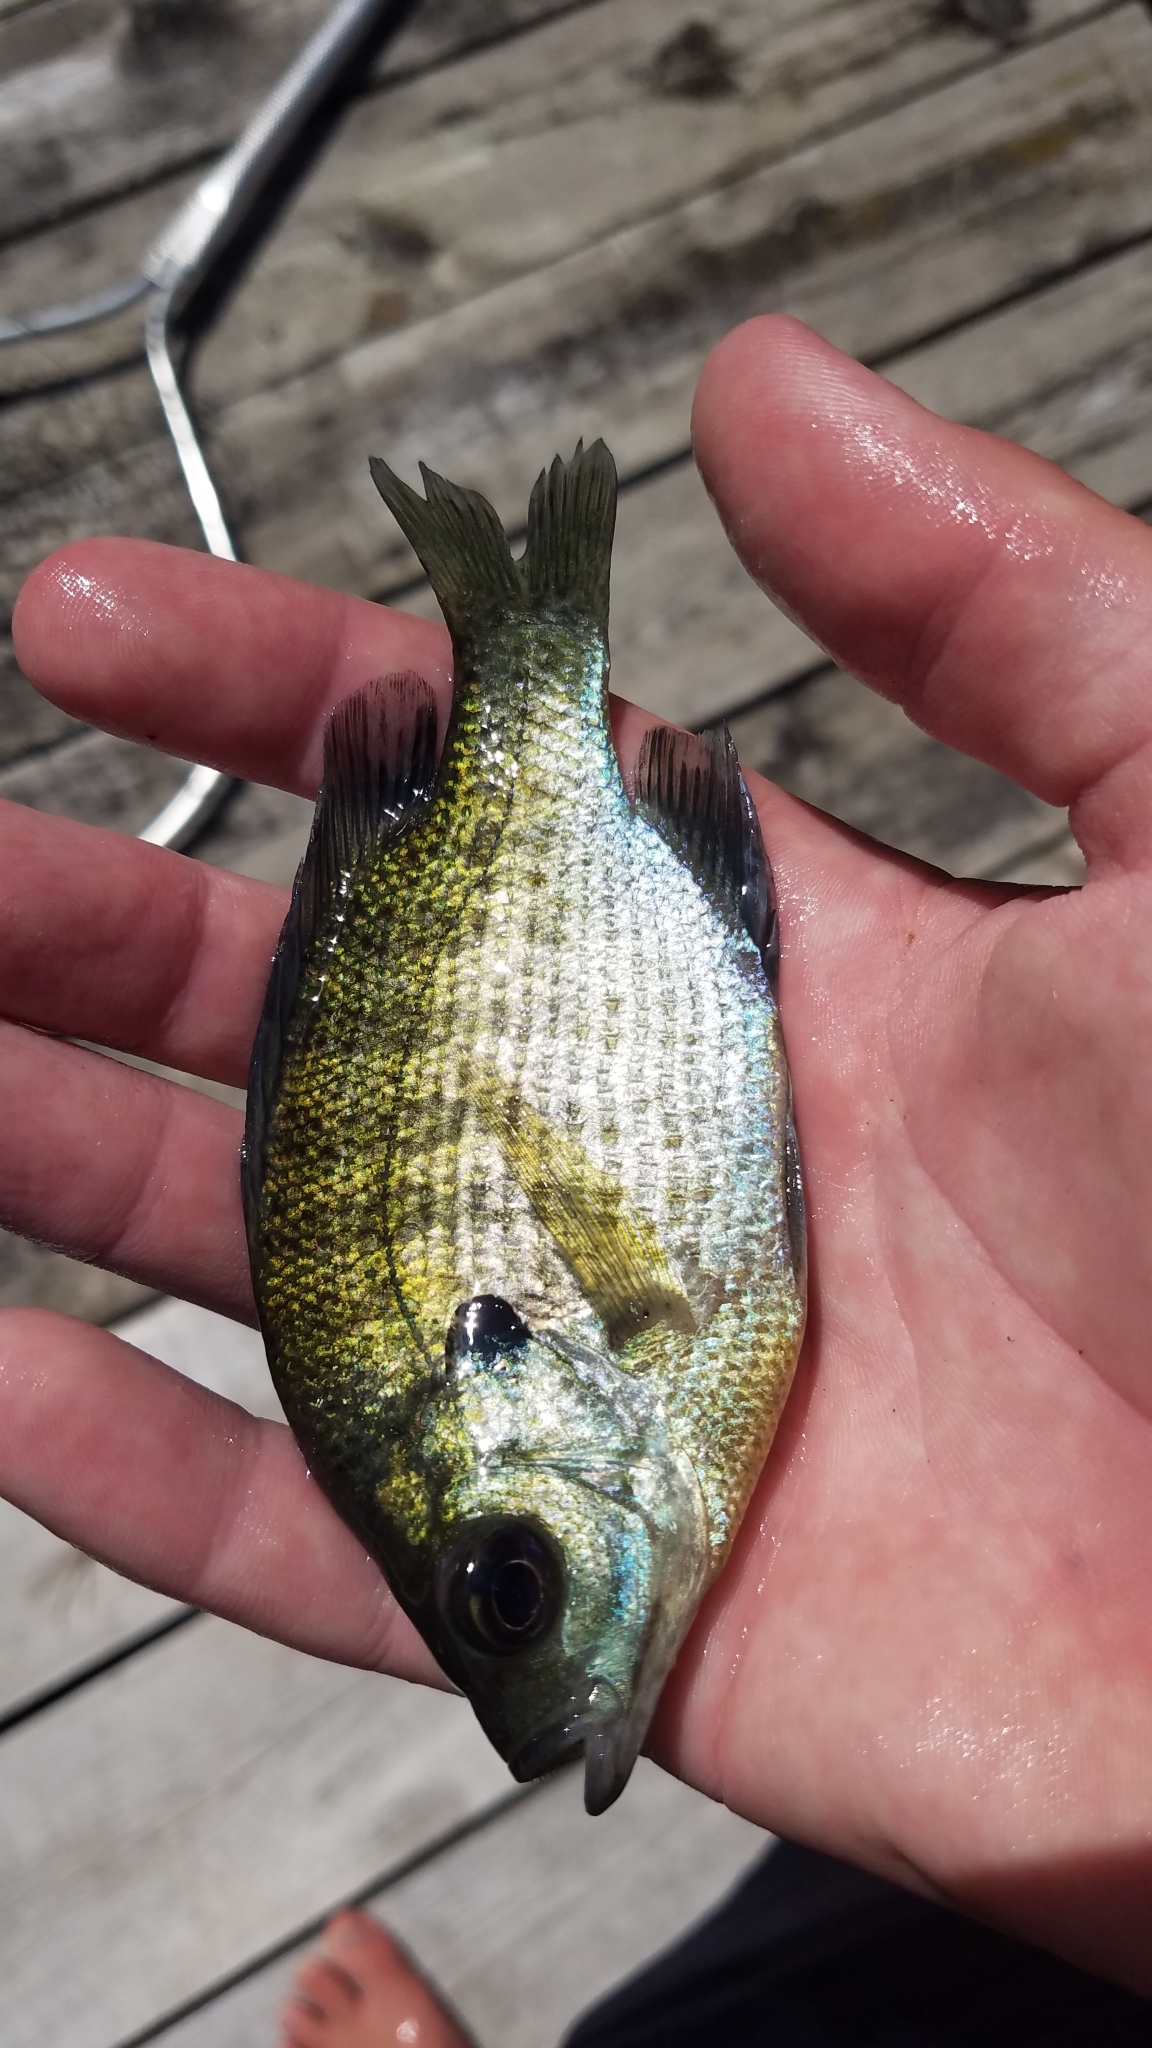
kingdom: Animalia
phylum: Chordata
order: Perciformes
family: Centrarchidae
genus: Lepomis
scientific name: Lepomis macrochirus
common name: Bluegill
